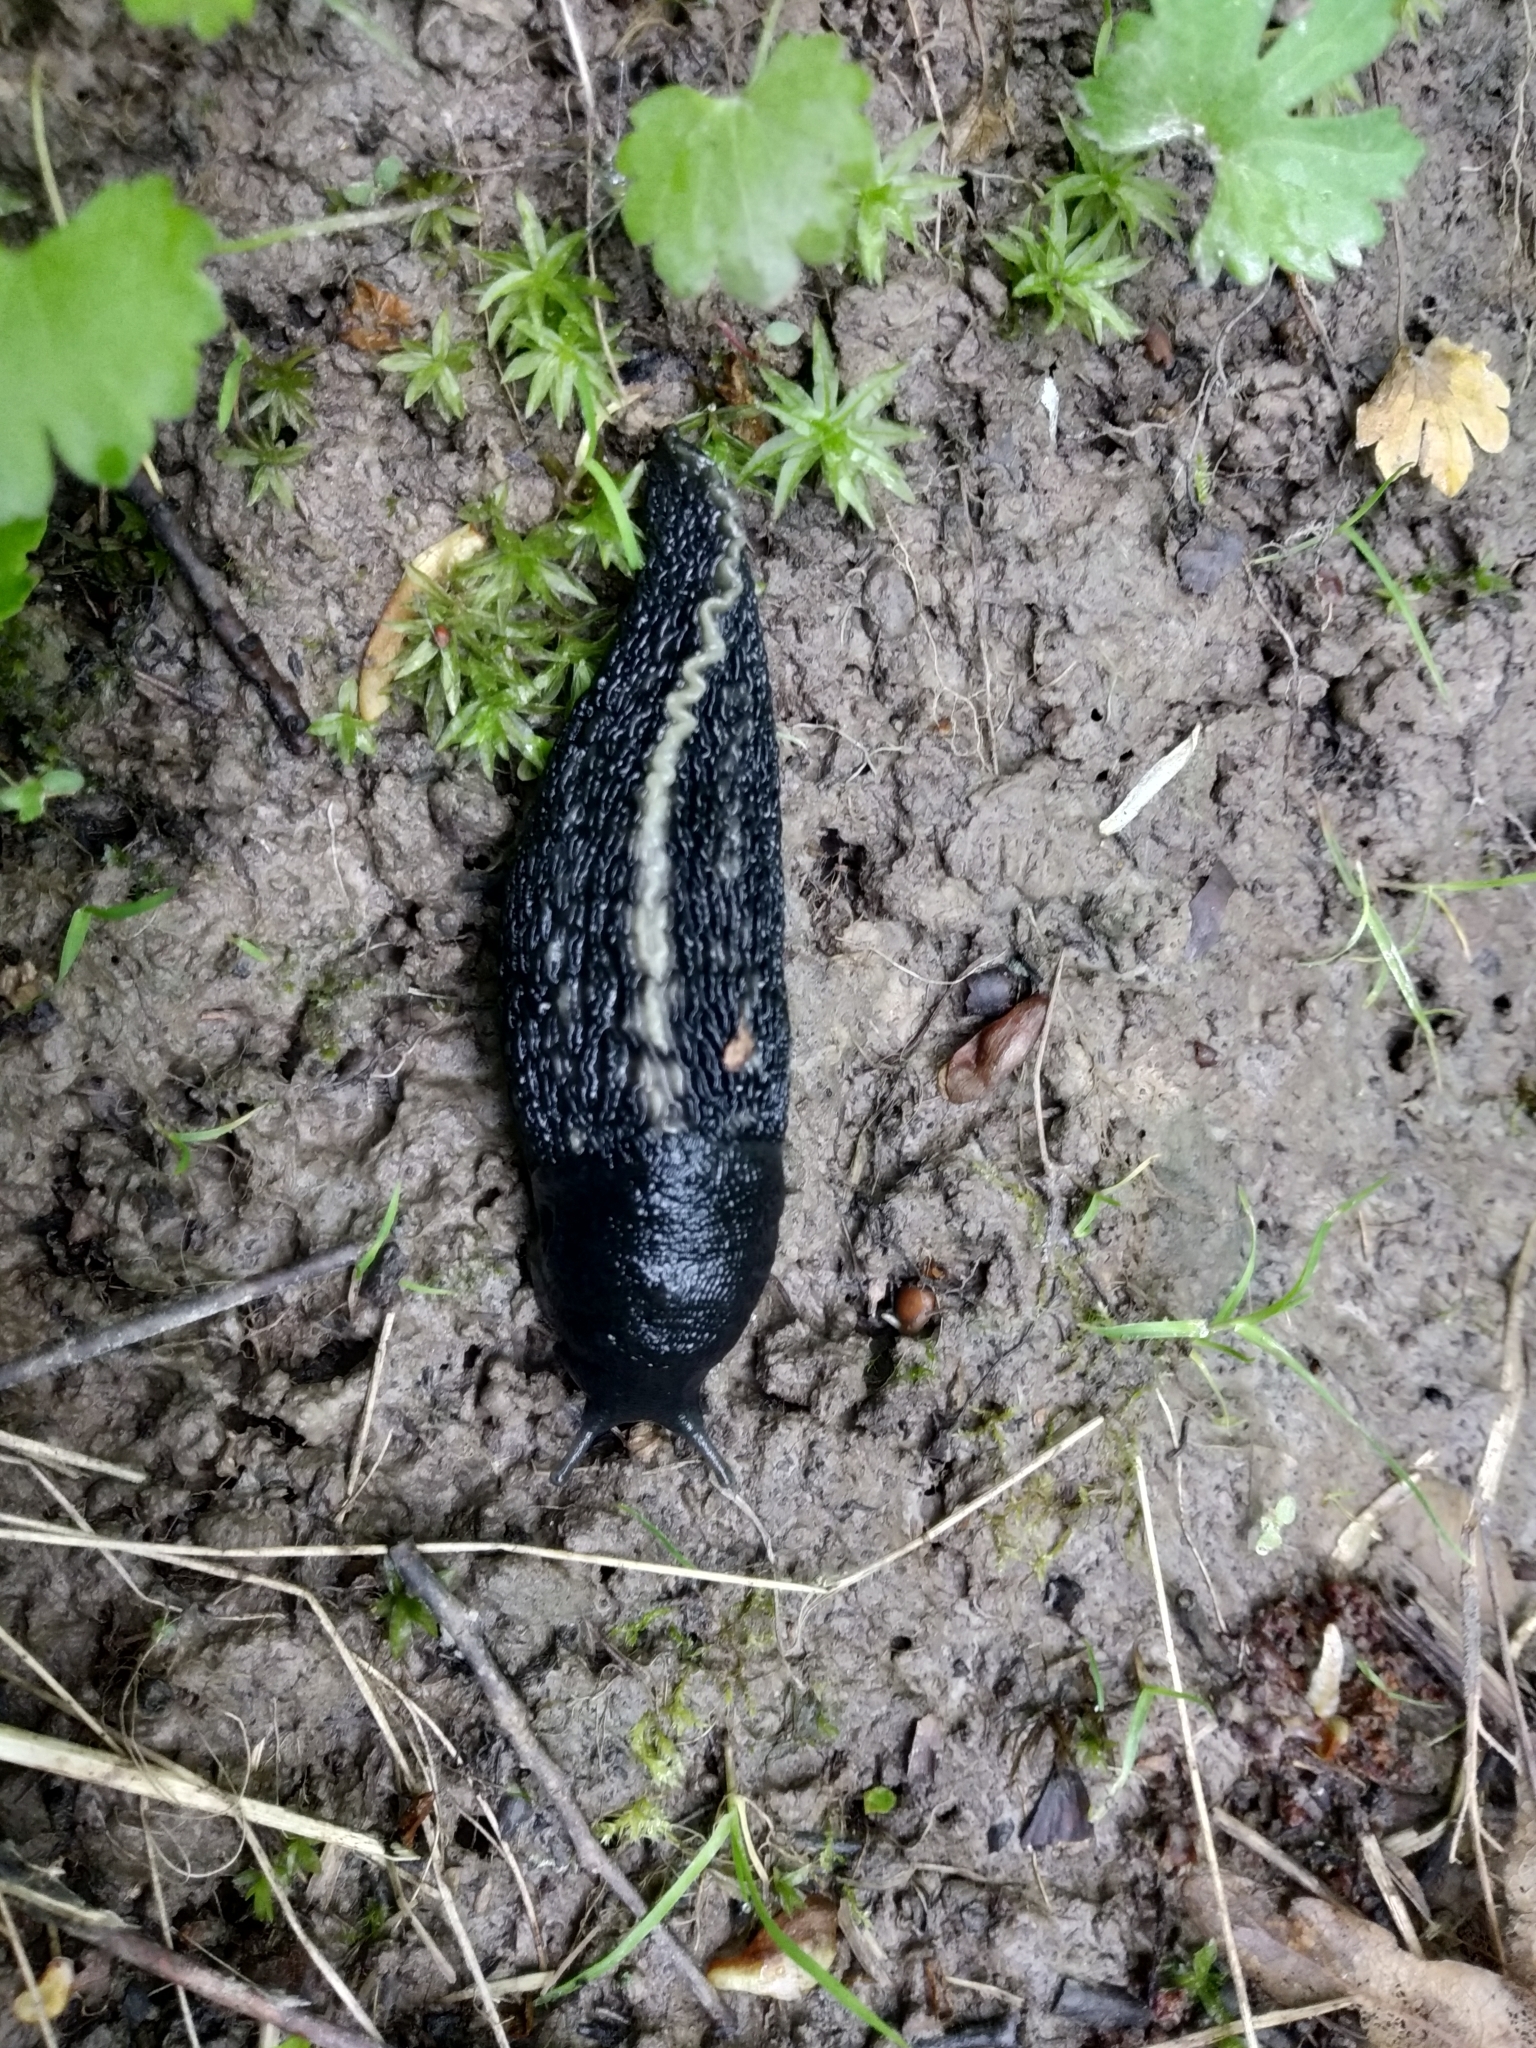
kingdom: Animalia
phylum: Mollusca
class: Gastropoda
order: Stylommatophora
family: Limacidae
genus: Limax
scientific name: Limax cinereoniger
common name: Ash-black slug
